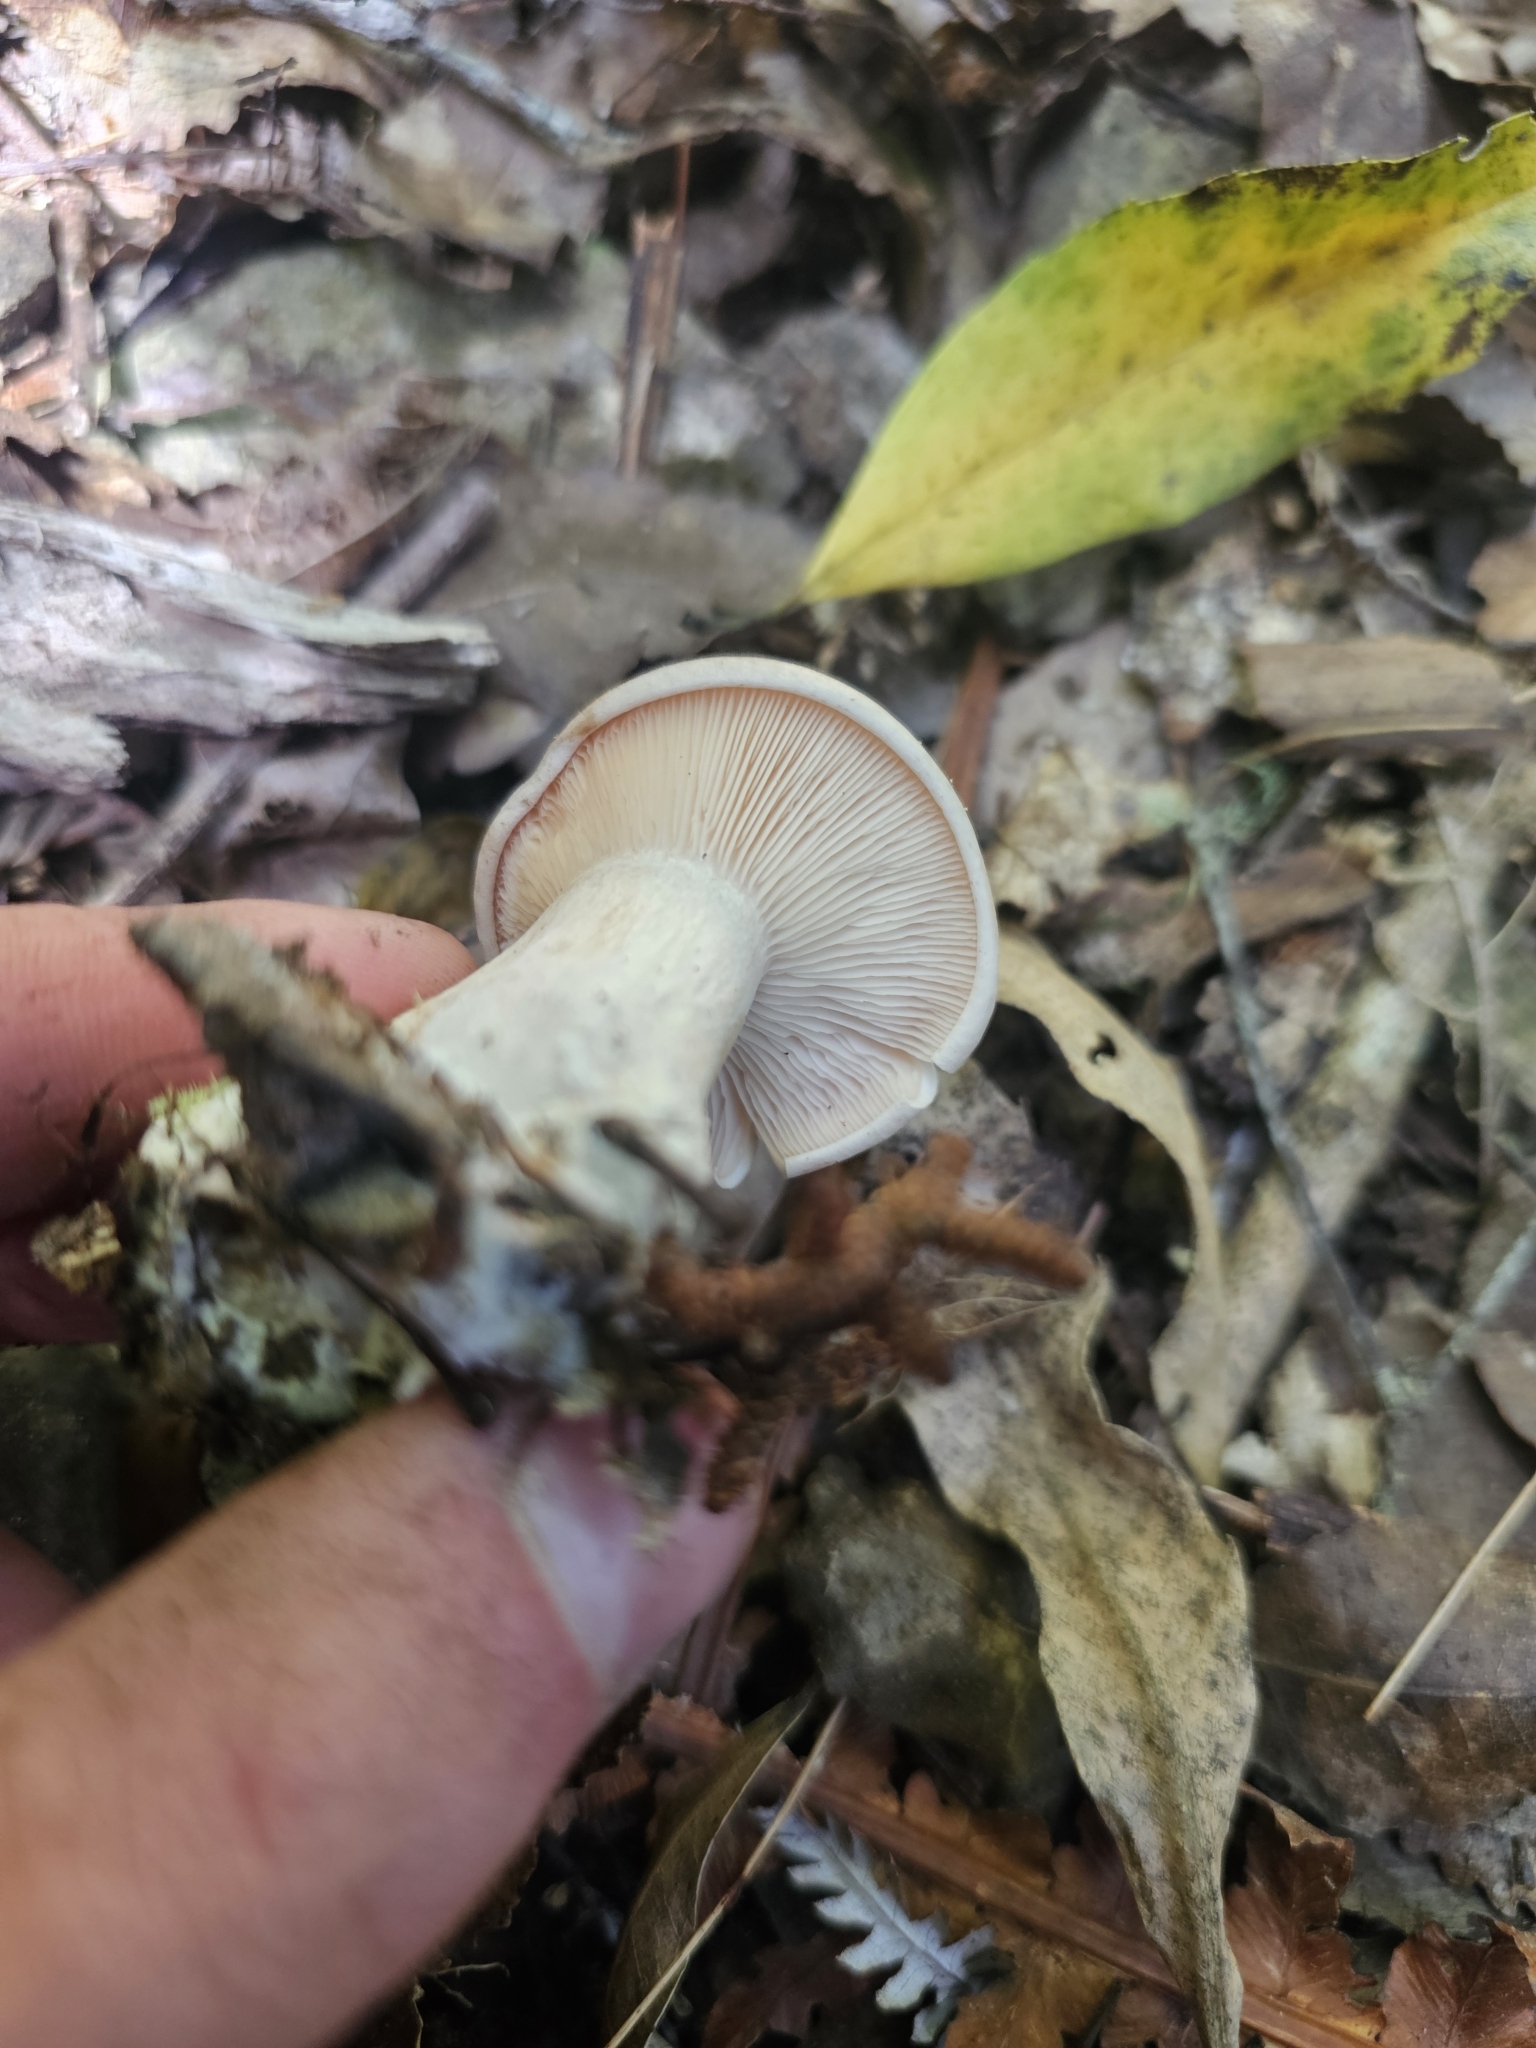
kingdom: Fungi
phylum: Basidiomycota
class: Agaricomycetes
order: Agaricales
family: Tricholomataceae
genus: Clitocybe
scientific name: Clitocybe nebularis
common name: Clouded agaric
